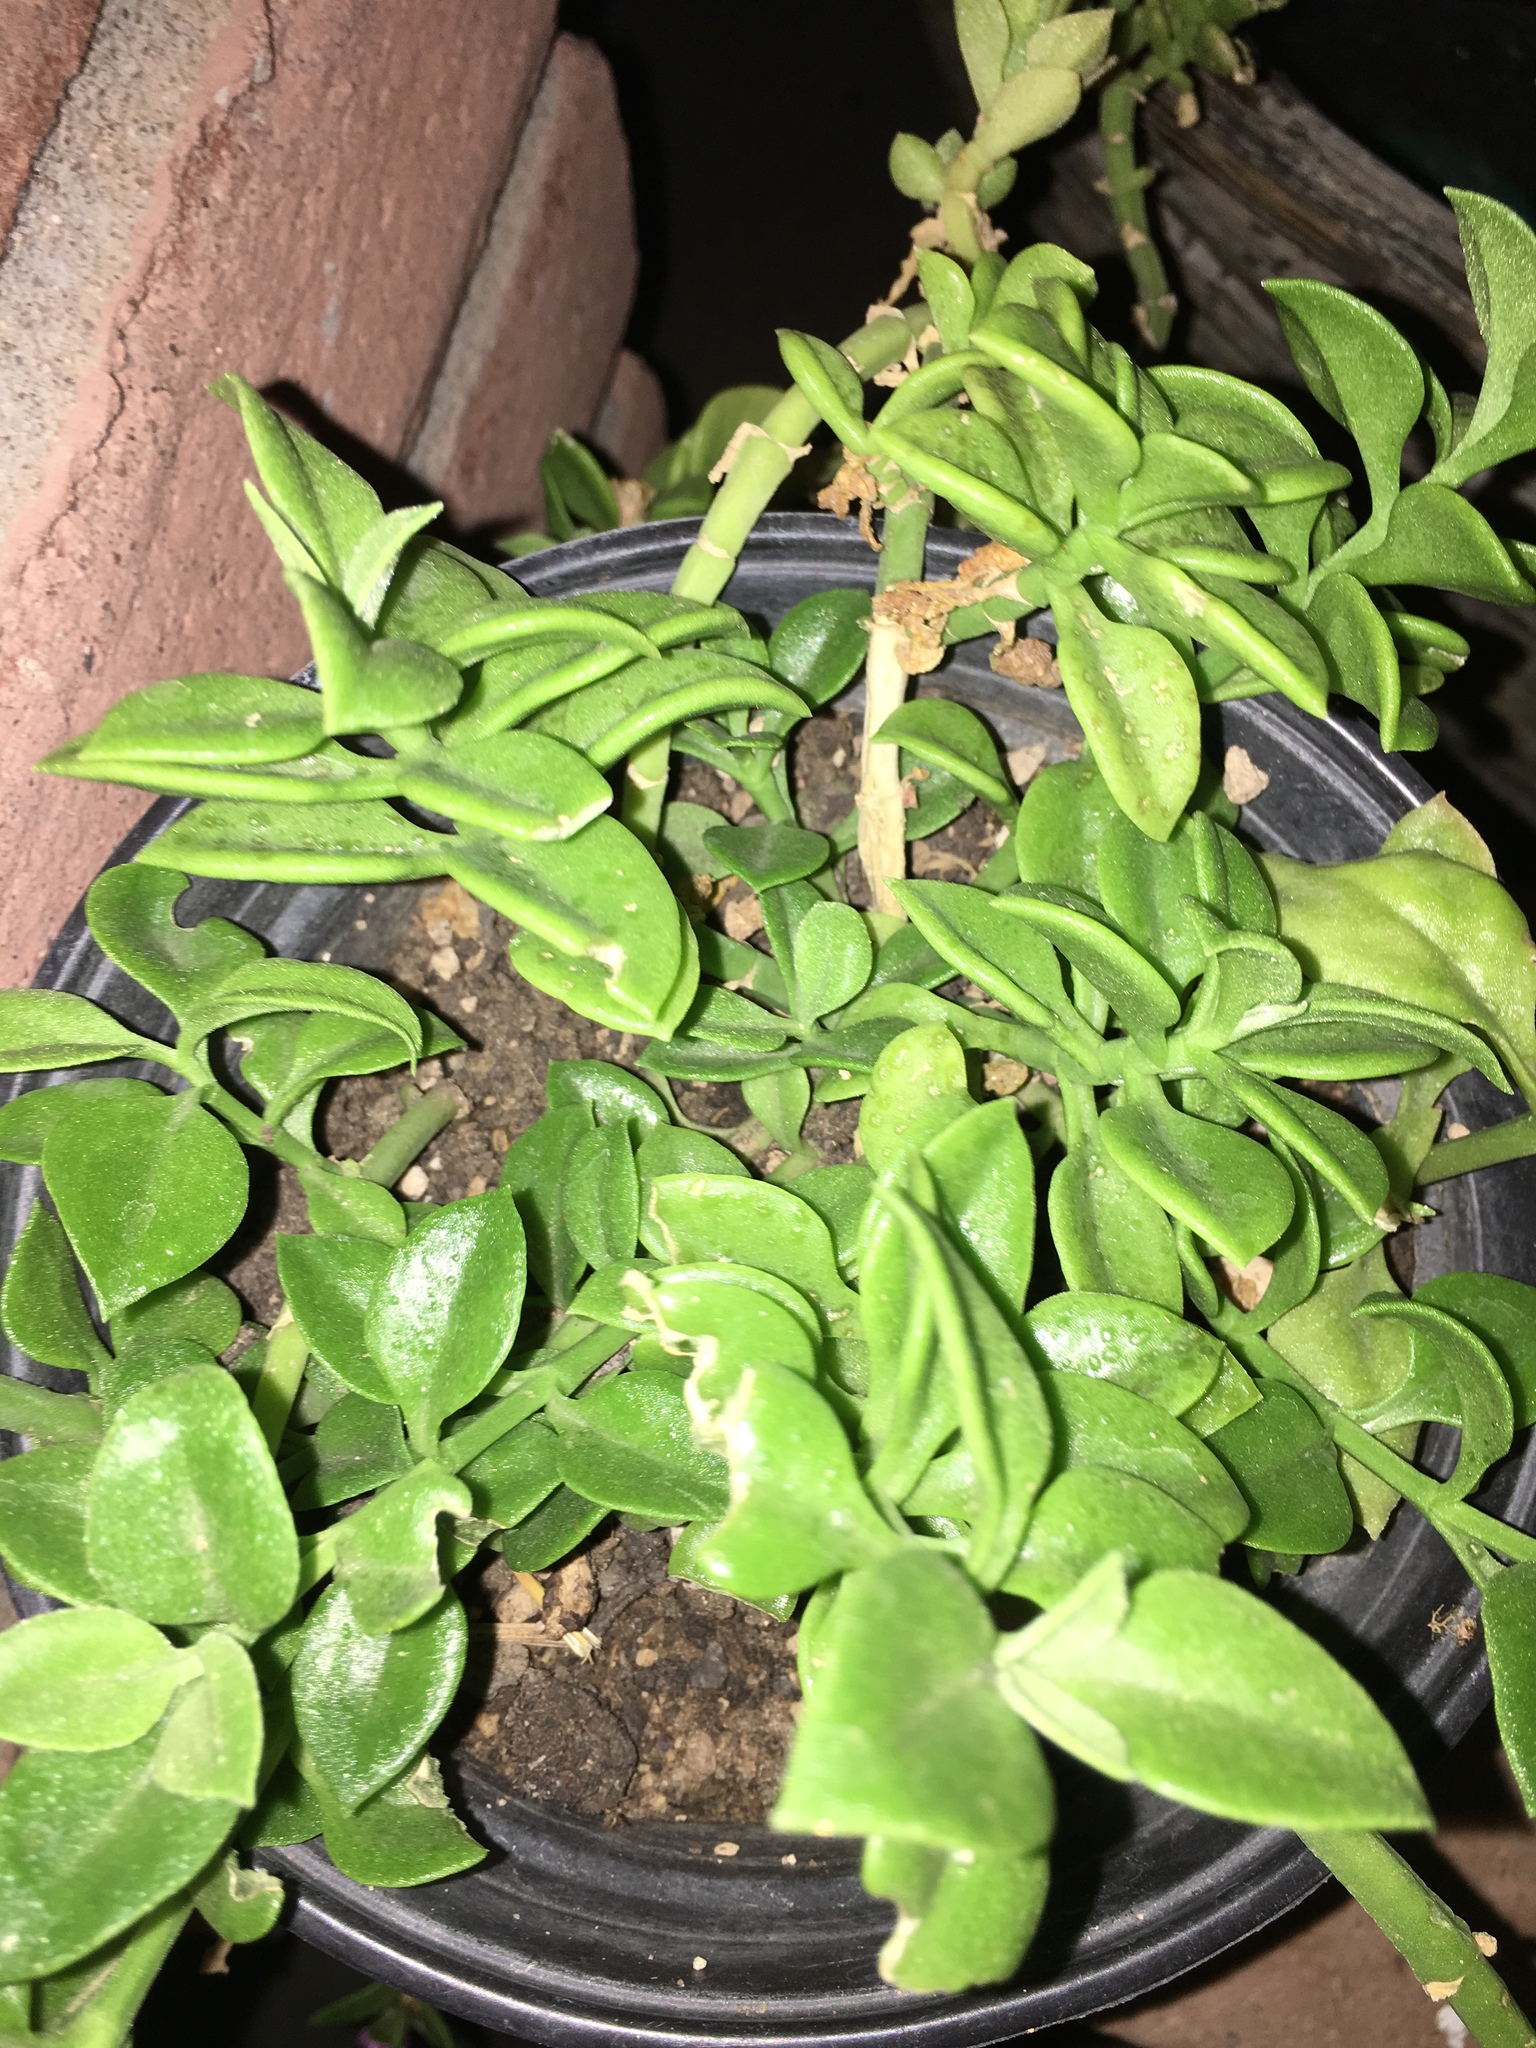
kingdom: Plantae
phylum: Tracheophyta
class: Magnoliopsida
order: Caryophyllales
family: Aizoaceae
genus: Mesembryanthemum
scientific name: Mesembryanthemum cordifolium
